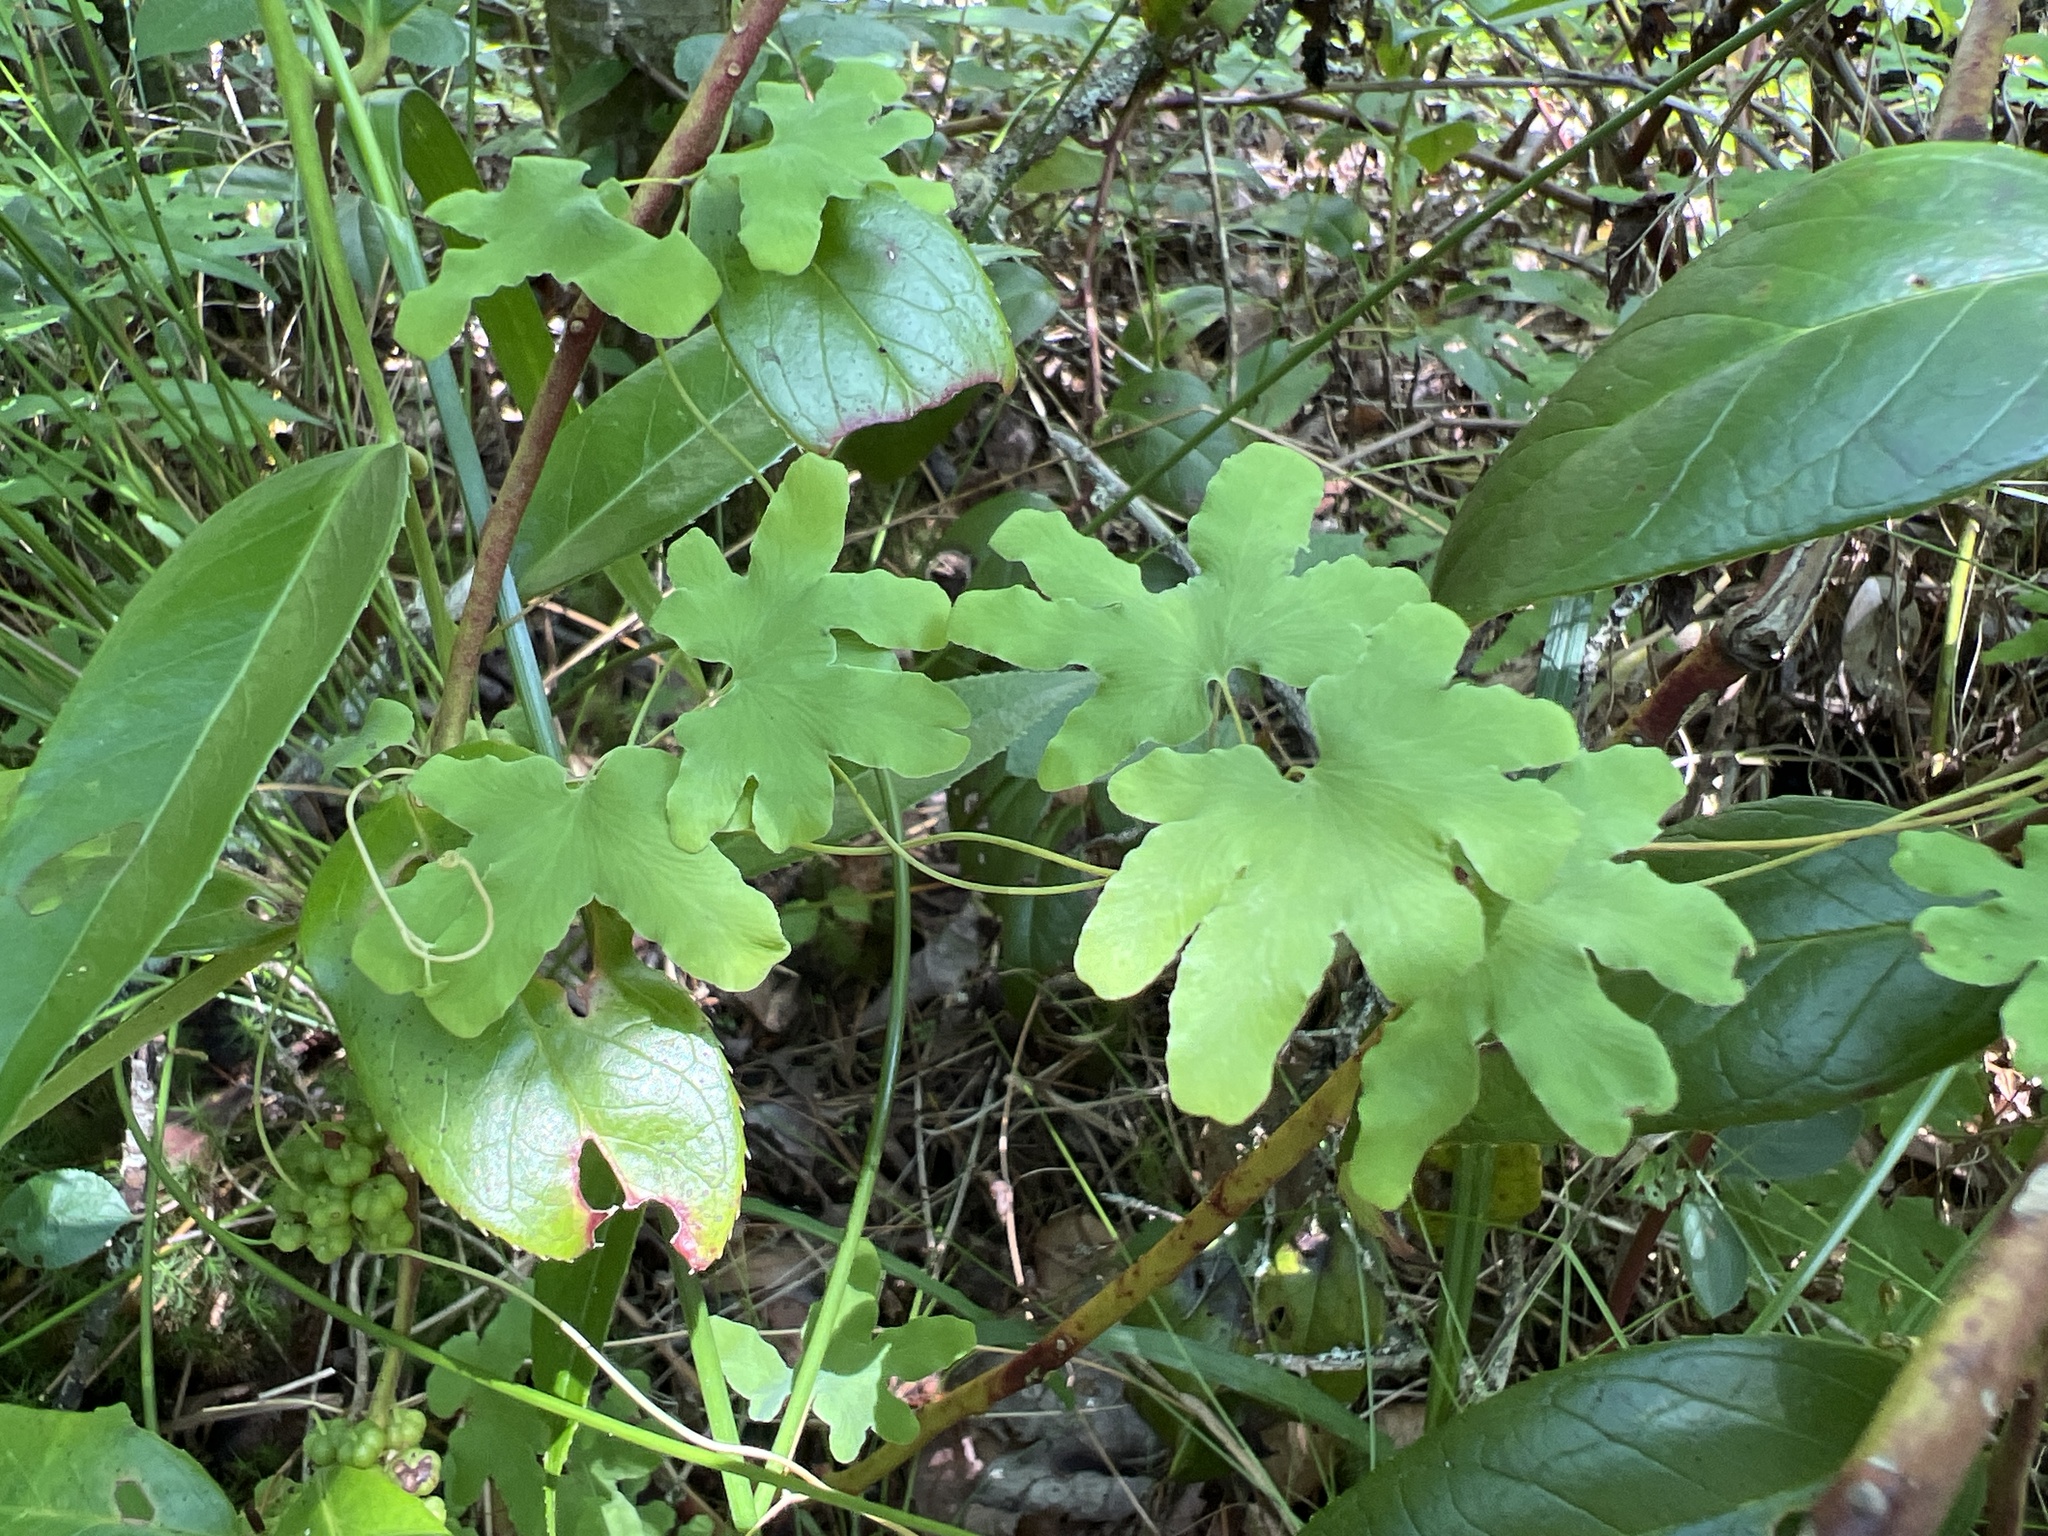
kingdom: Plantae
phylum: Tracheophyta
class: Polypodiopsida
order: Schizaeales
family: Lygodiaceae
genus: Lygodium
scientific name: Lygodium palmatum
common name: American climbing fern
